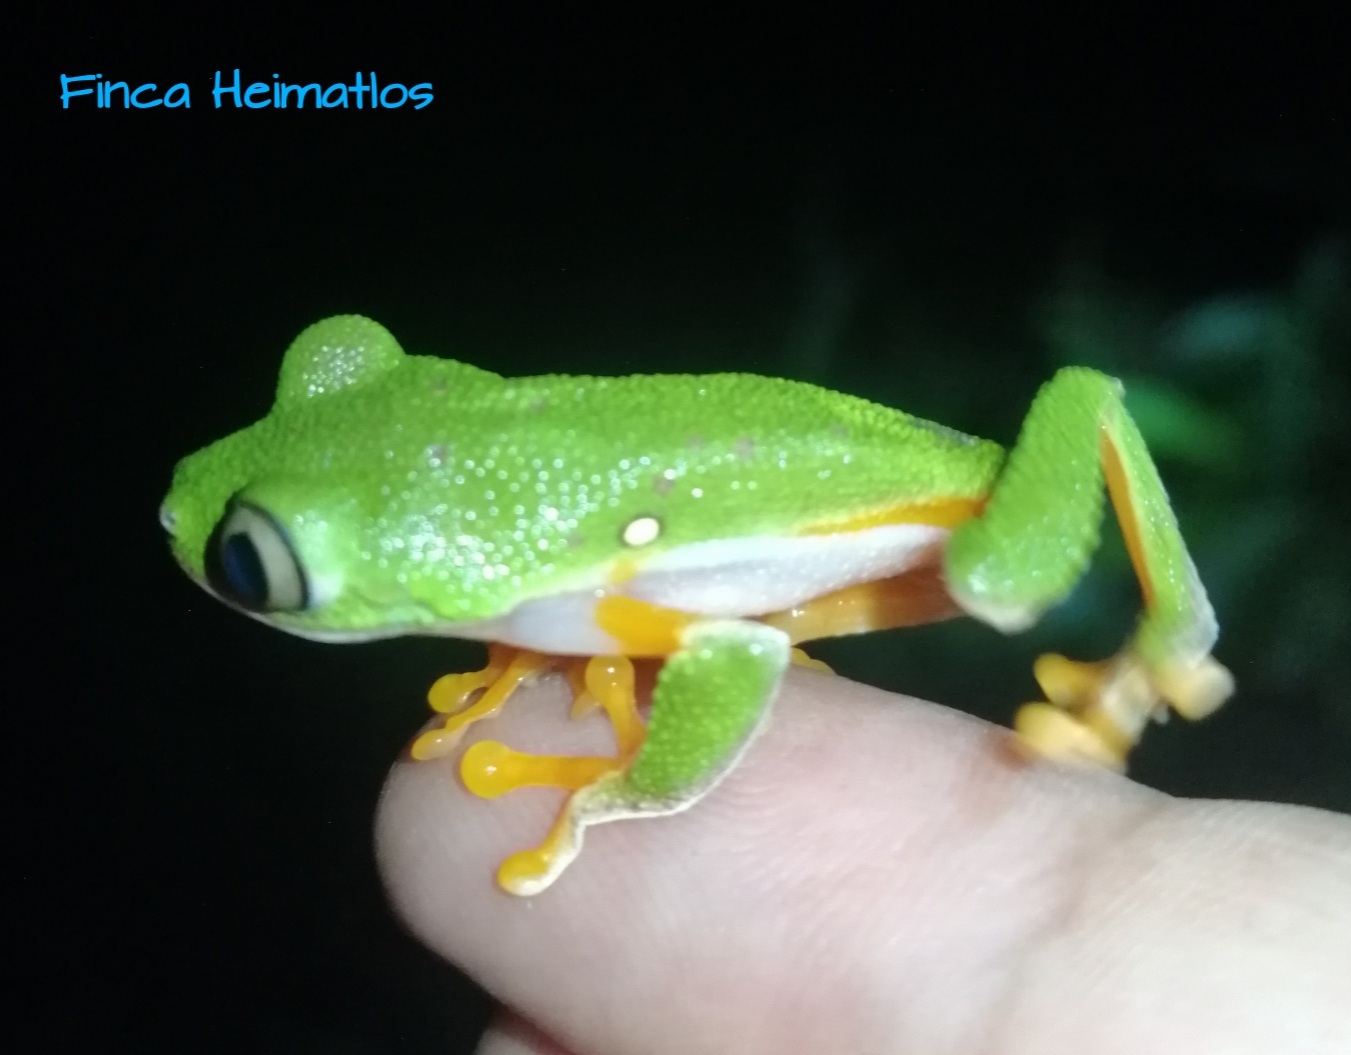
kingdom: Animalia
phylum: Chordata
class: Amphibia
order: Anura
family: Phyllomedusidae
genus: Agalychnis
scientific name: Agalychnis hulli
